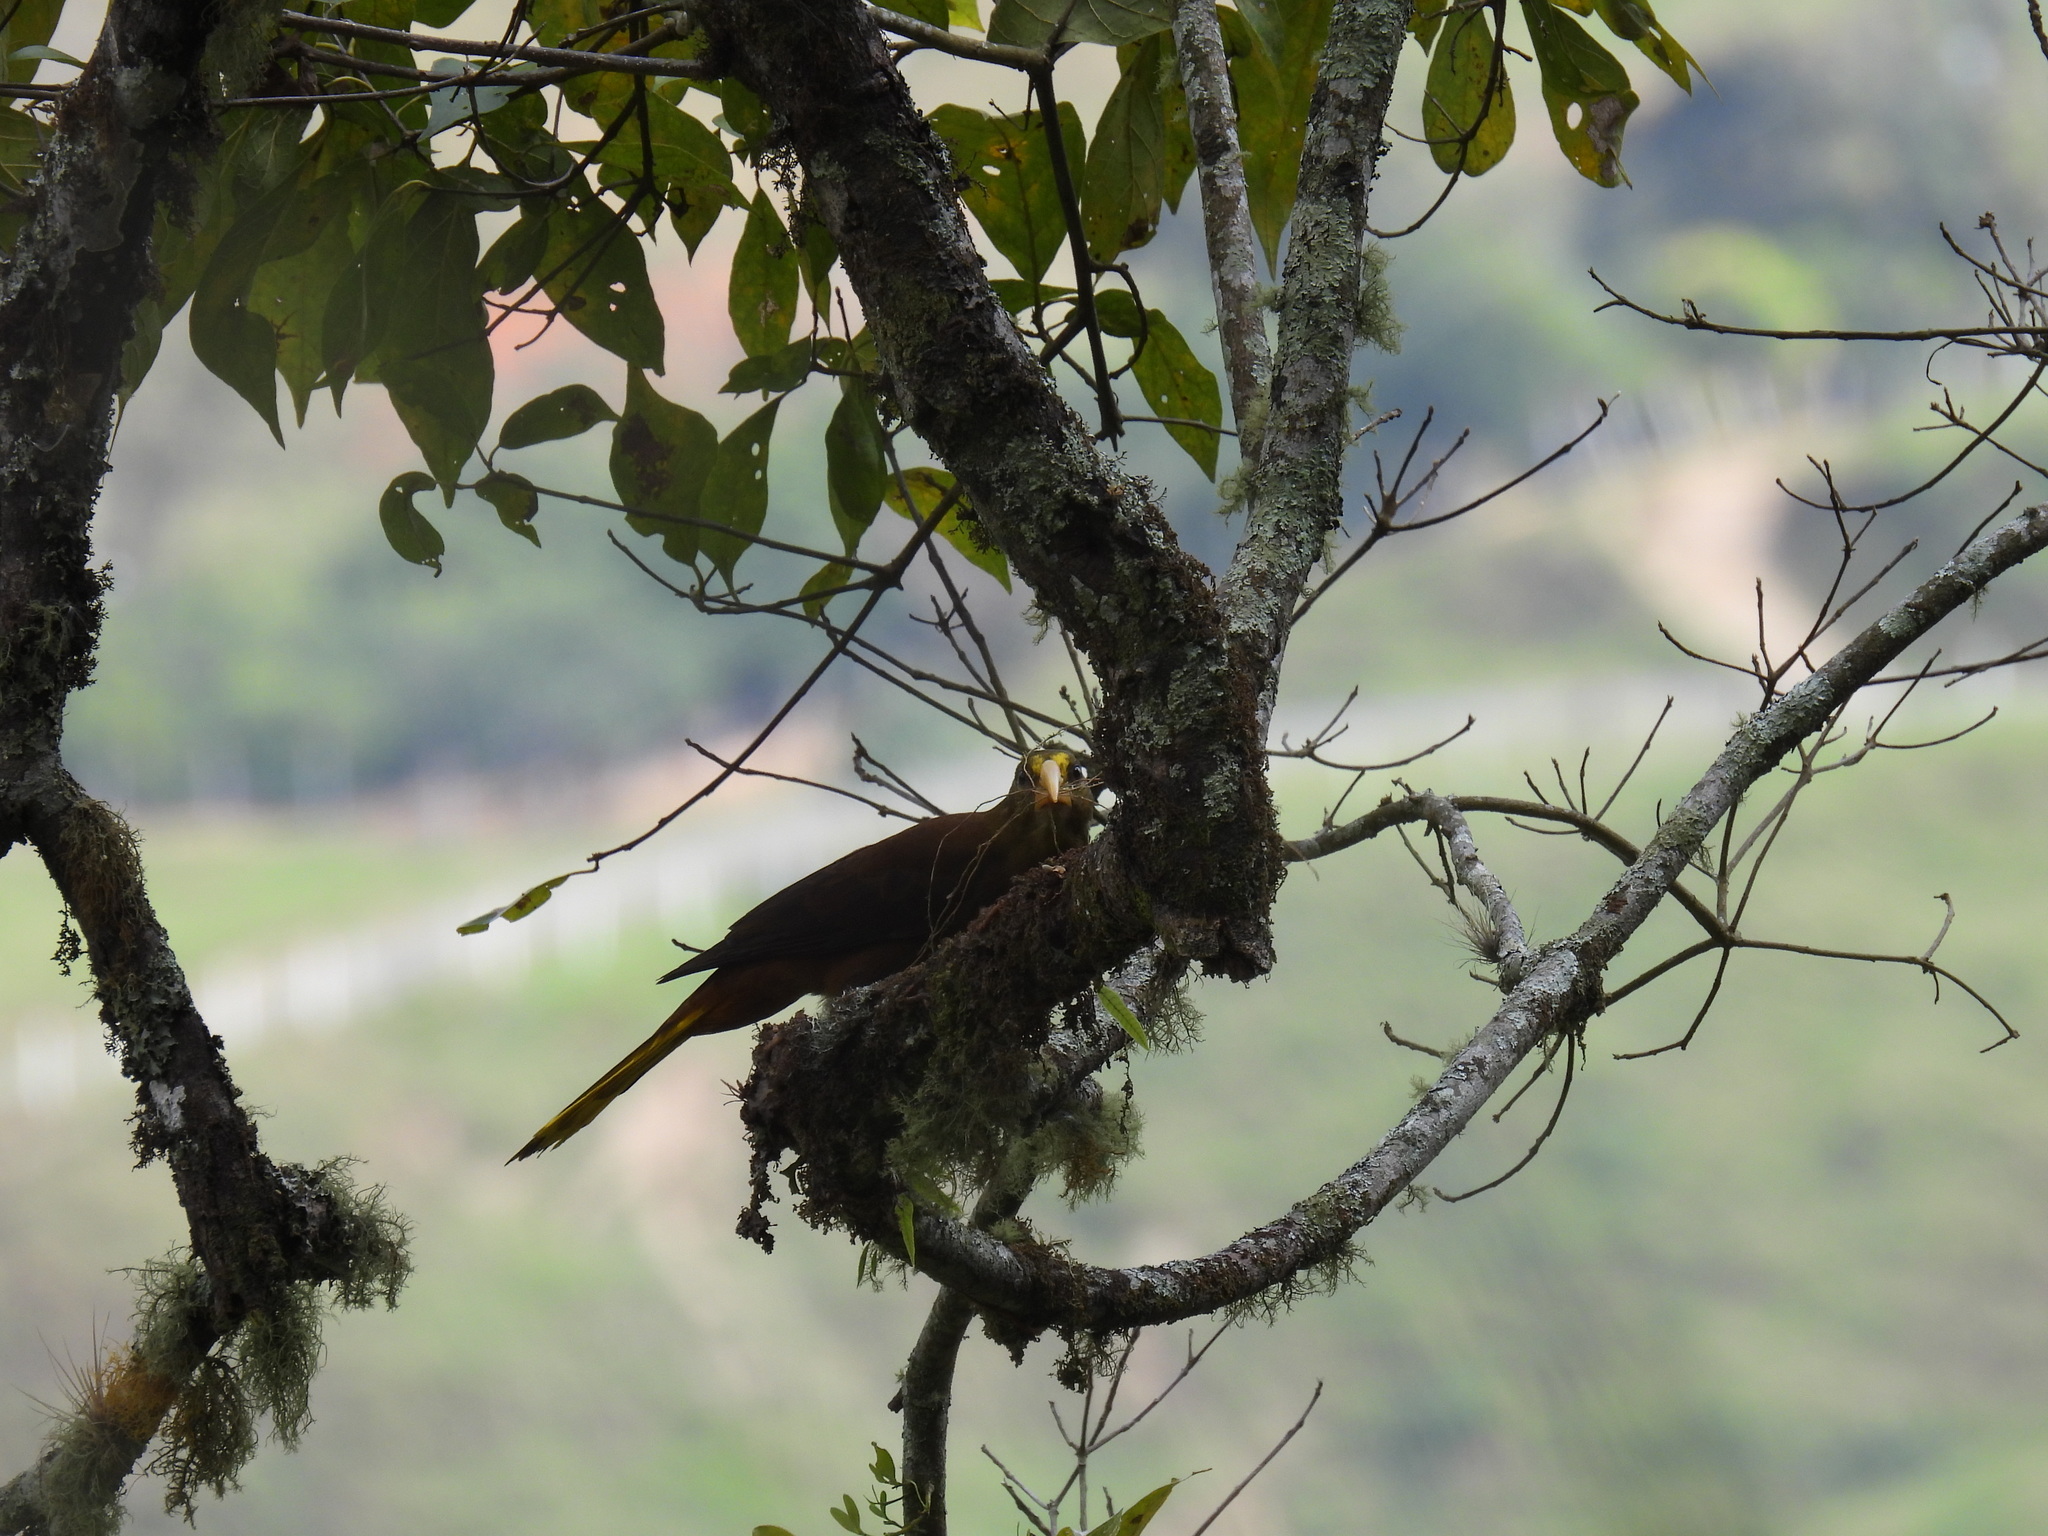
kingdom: Animalia
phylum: Chordata
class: Aves
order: Passeriformes
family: Icteridae
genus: Psarocolius
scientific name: Psarocolius angustifrons
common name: Russet-backed oropendola
